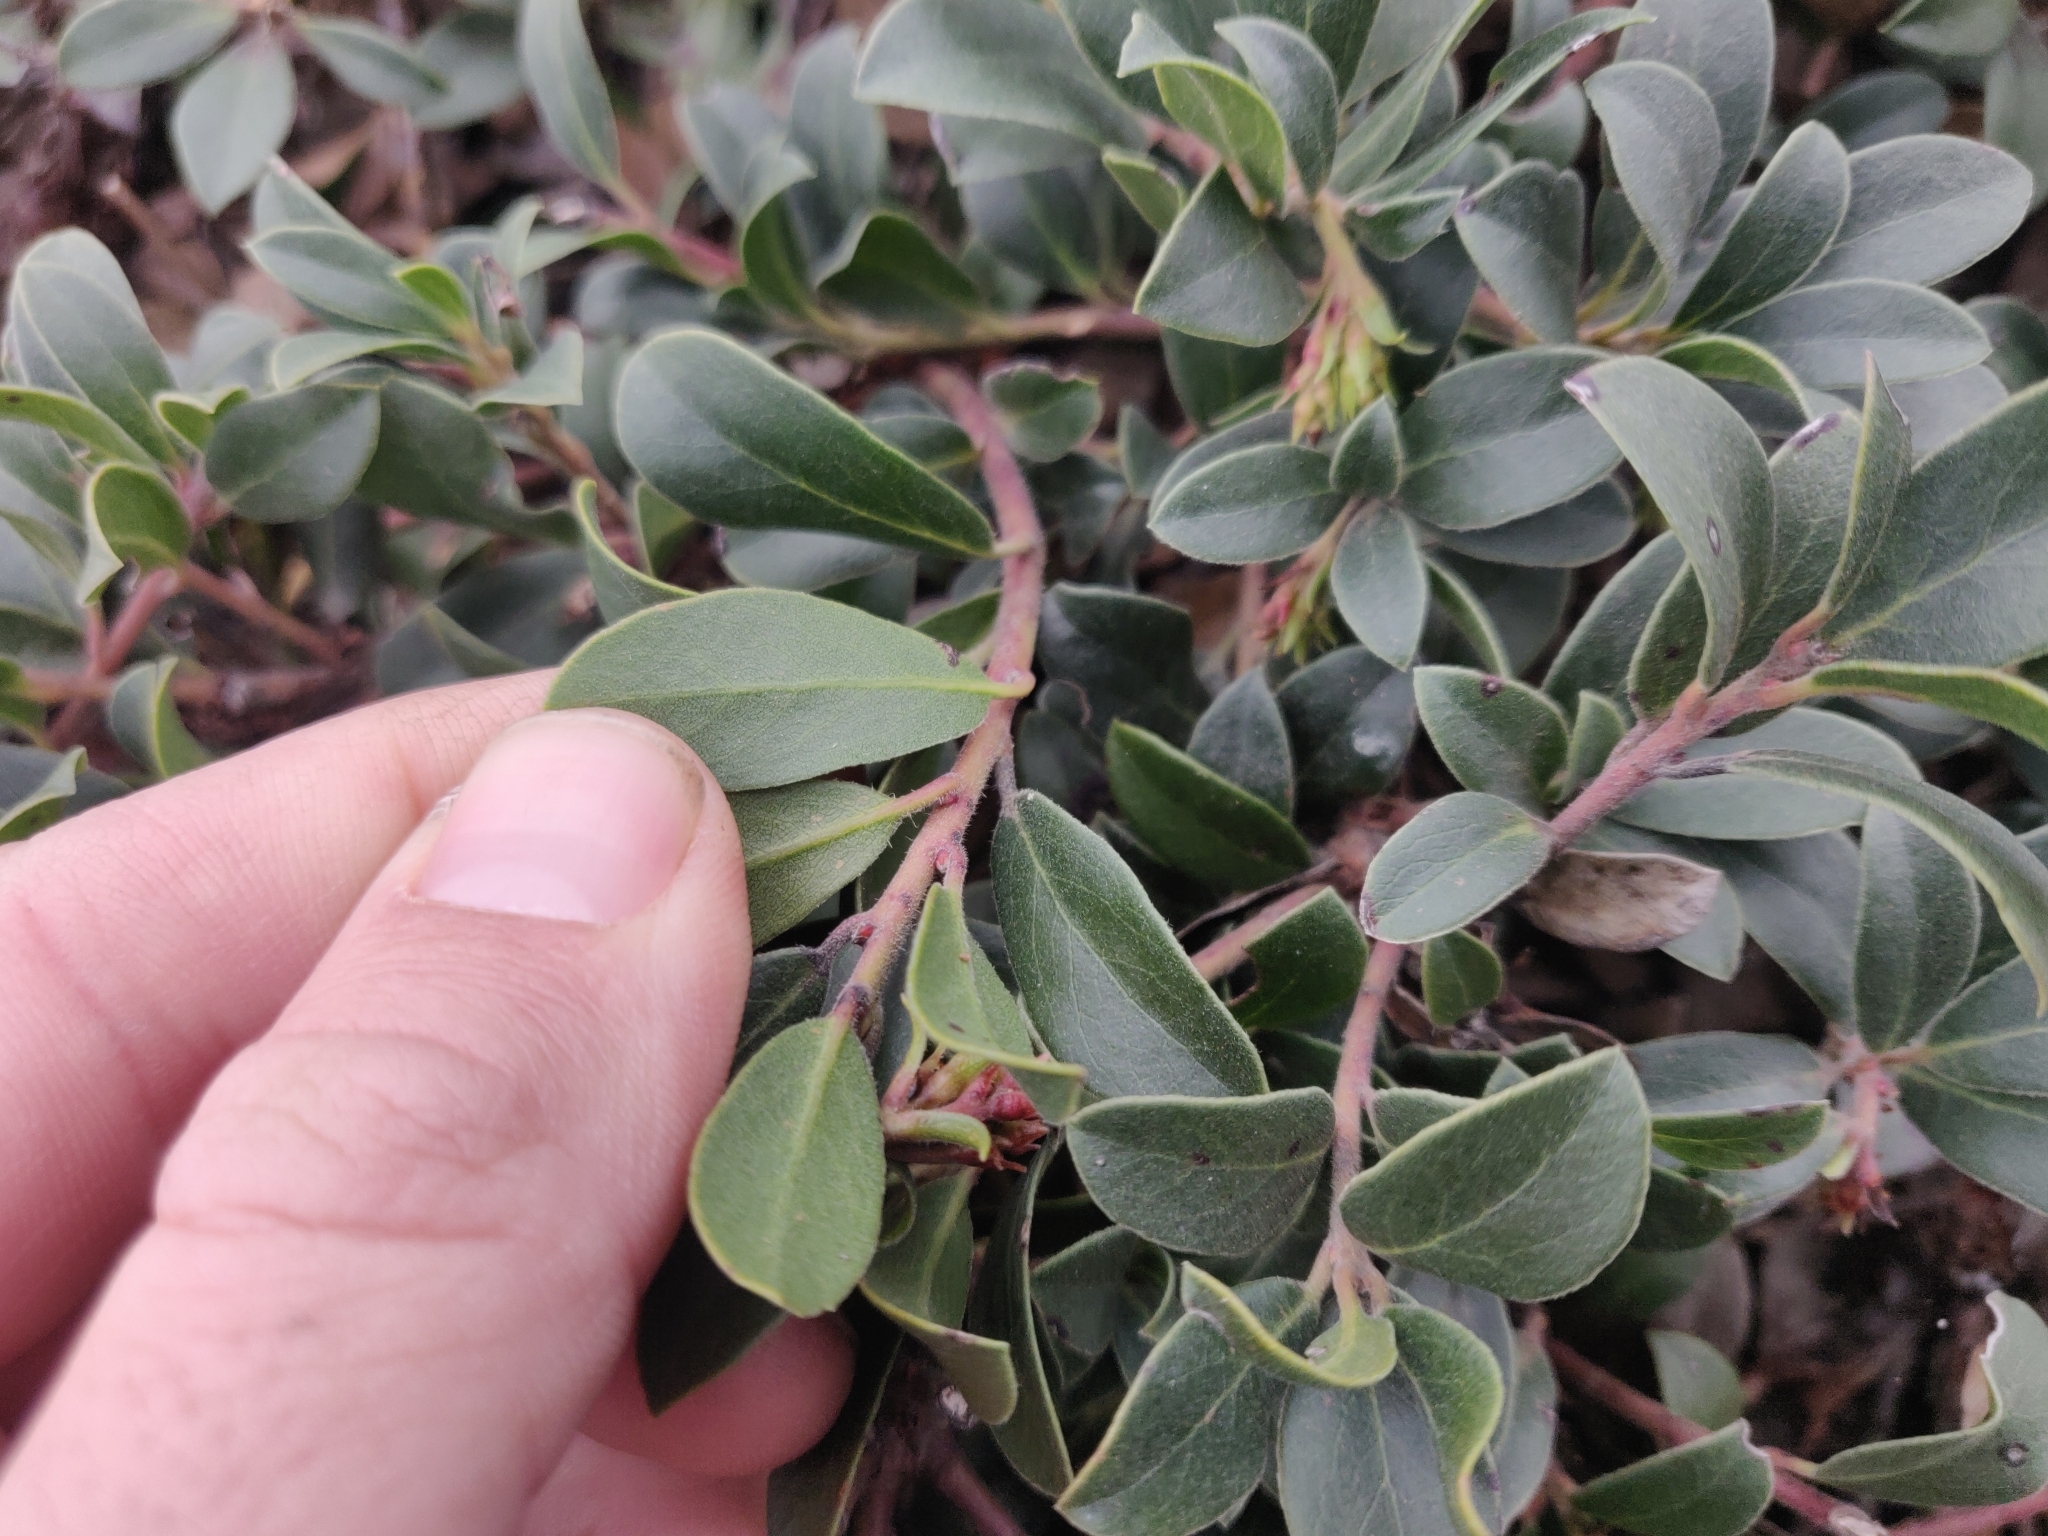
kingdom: Plantae
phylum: Tracheophyta
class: Magnoliopsida
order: Ericales
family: Ericaceae
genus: Arctostaphylos
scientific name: Arctostaphylos uva-ursi
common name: Bearberry
